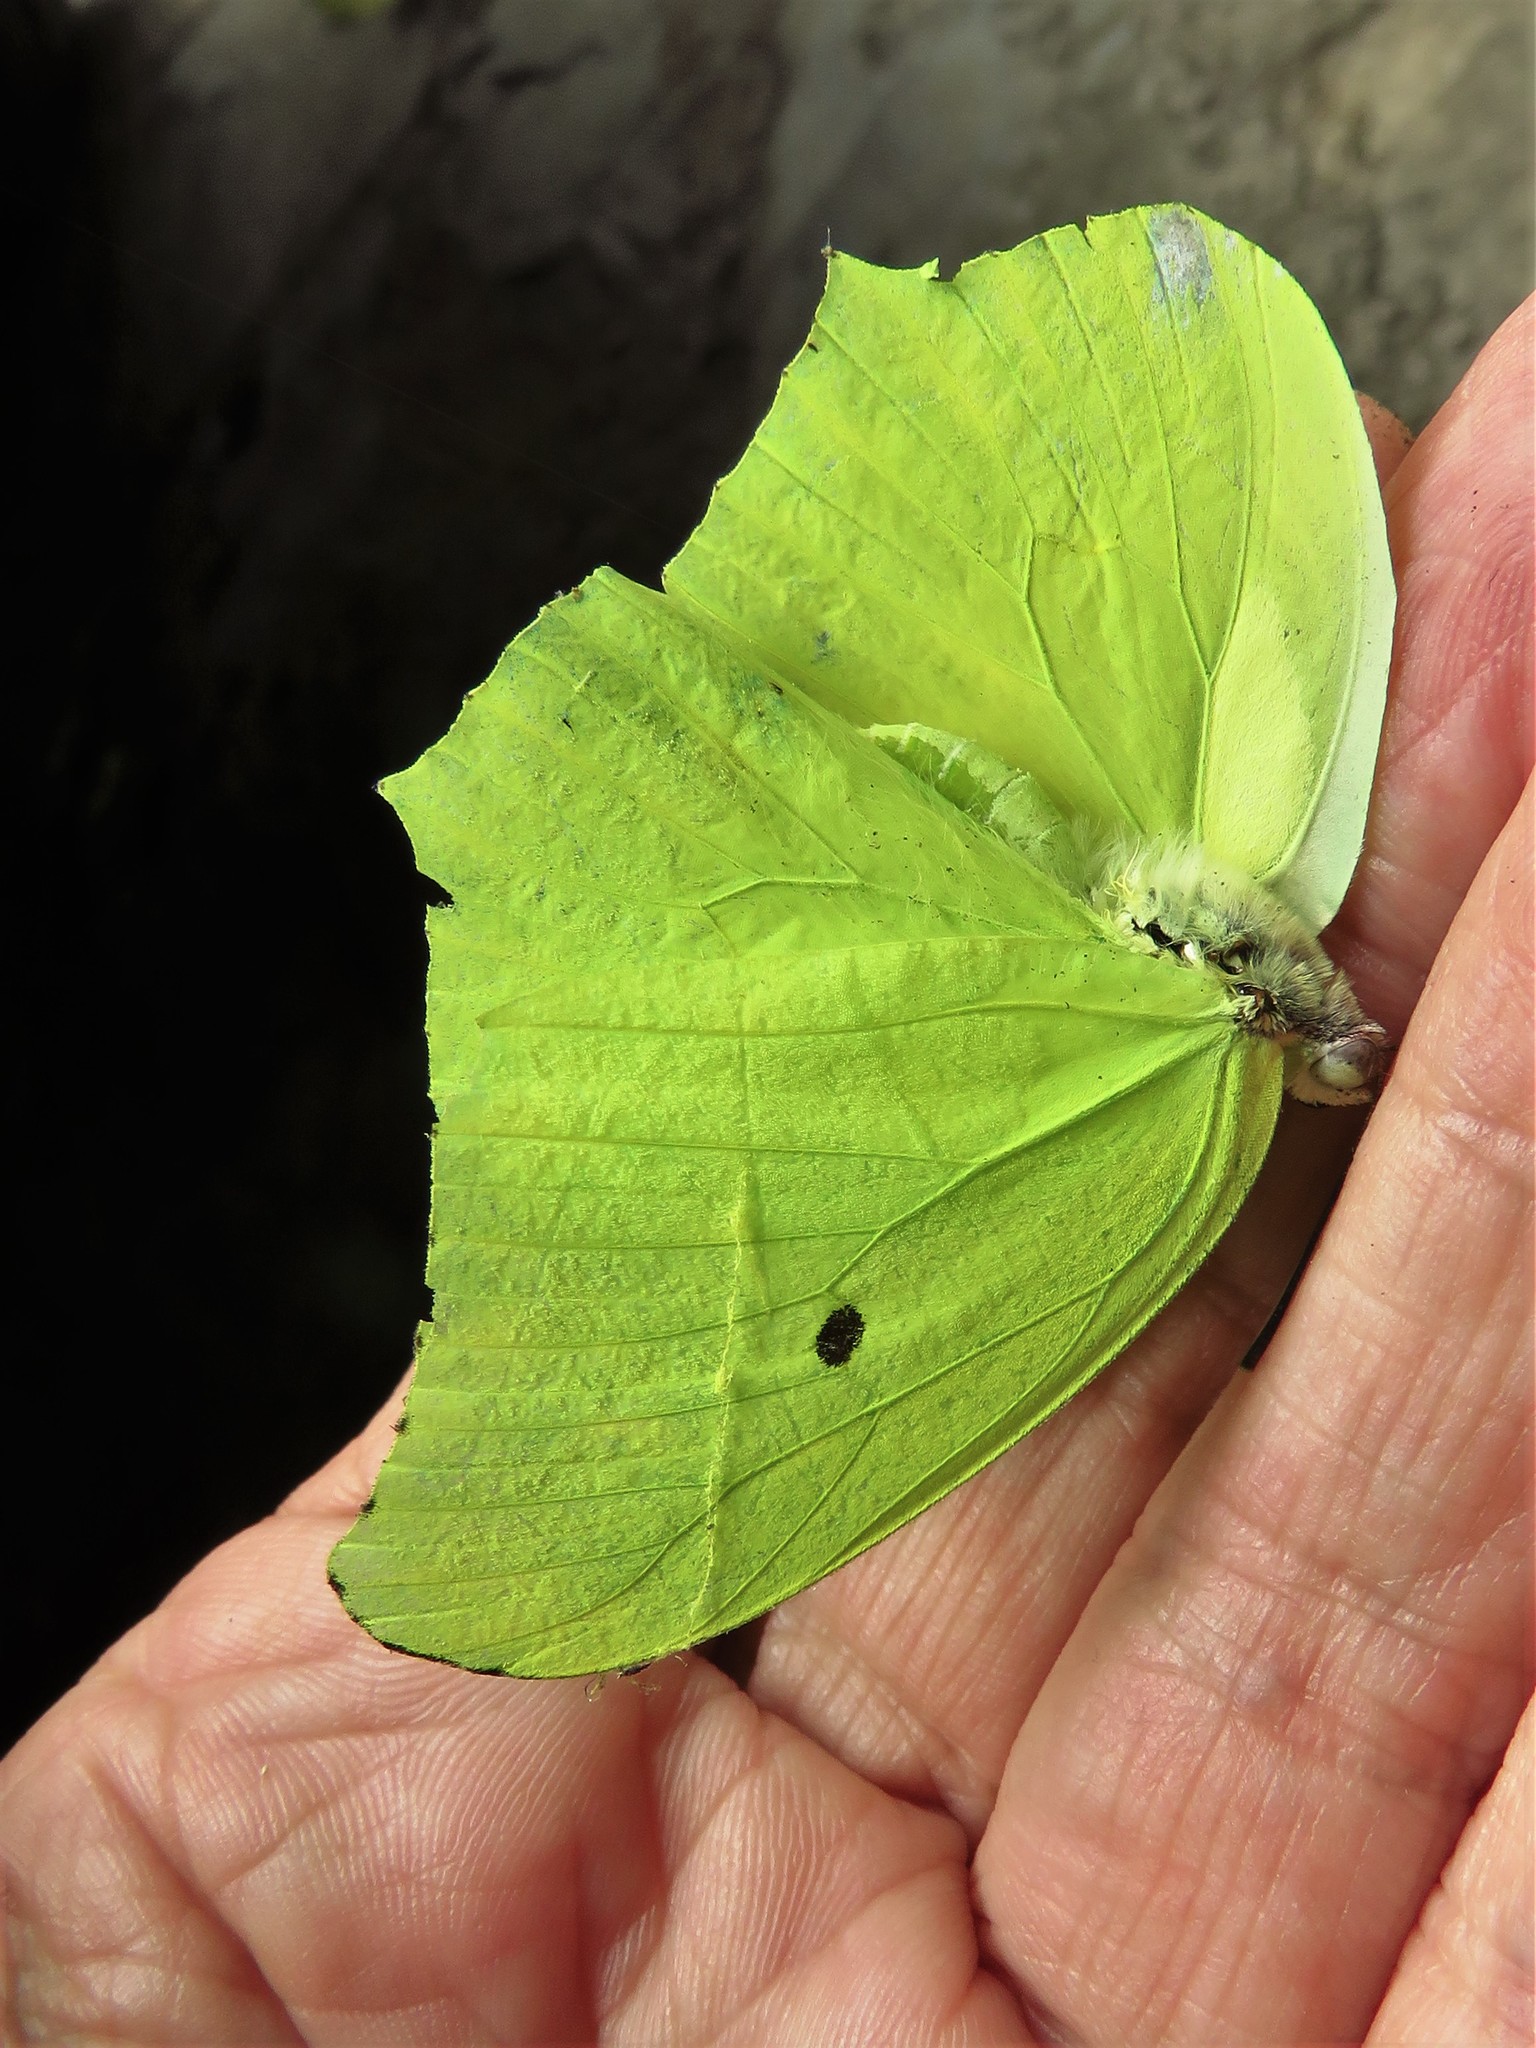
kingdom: Animalia
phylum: Arthropoda
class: Insecta
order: Lepidoptera
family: Pieridae
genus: Anteos
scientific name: Anteos maerula
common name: Angled sulphur
